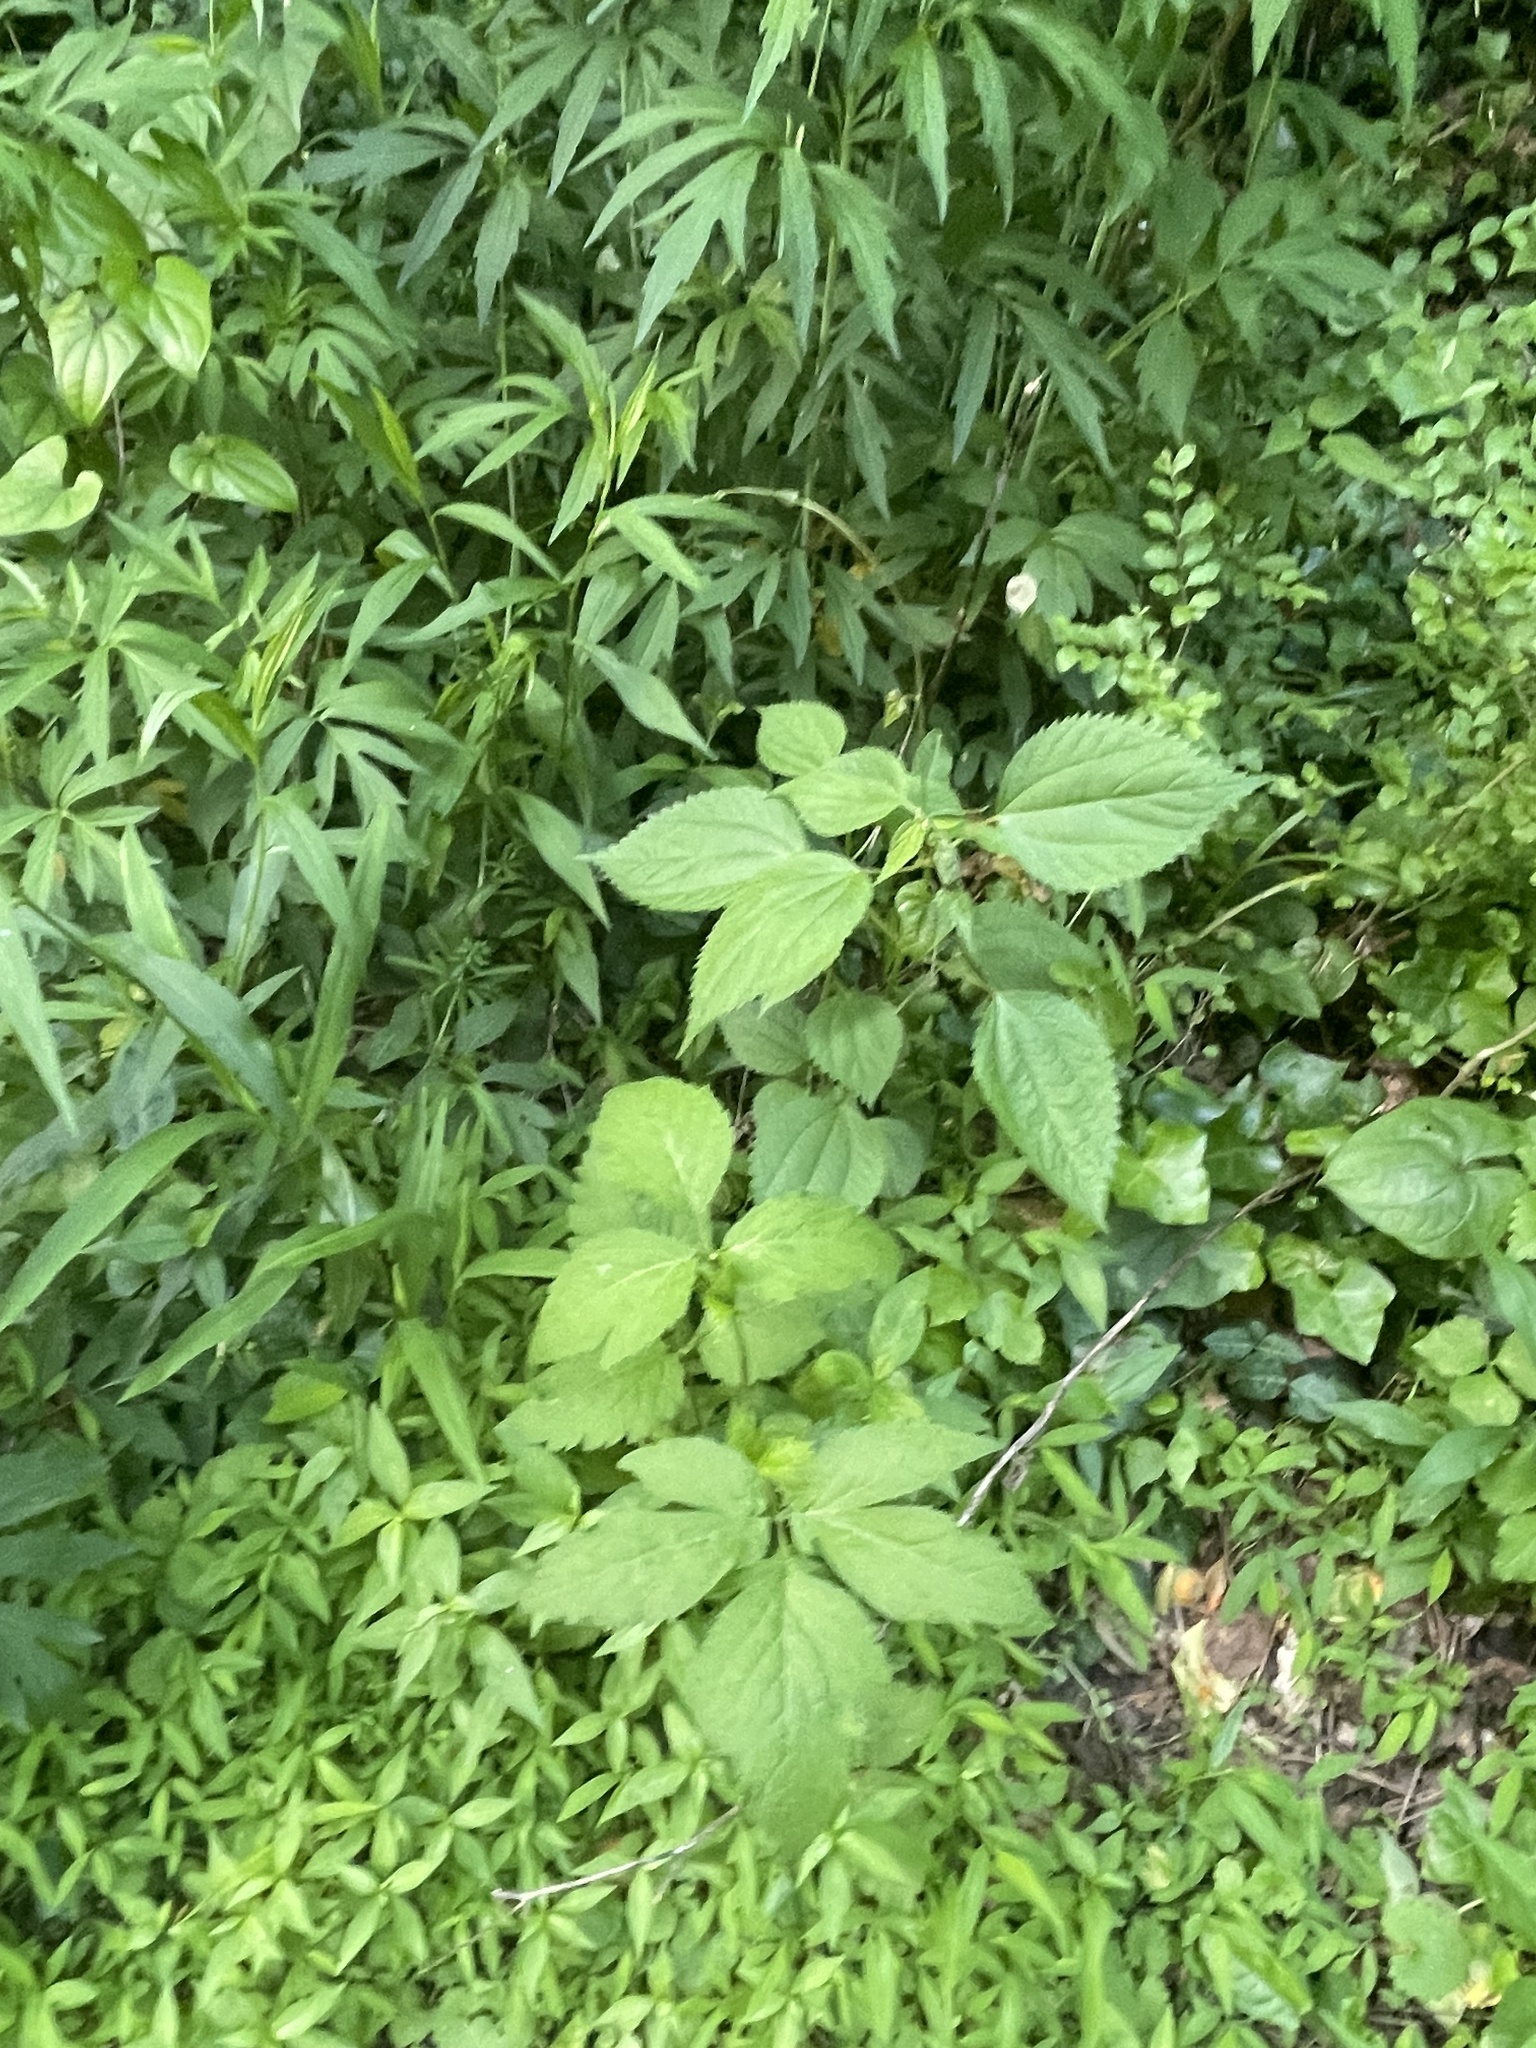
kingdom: Plantae
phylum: Tracheophyta
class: Magnoliopsida
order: Rosales
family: Urticaceae
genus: Boehmeria
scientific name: Boehmeria cylindrica
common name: Bog-hemp
